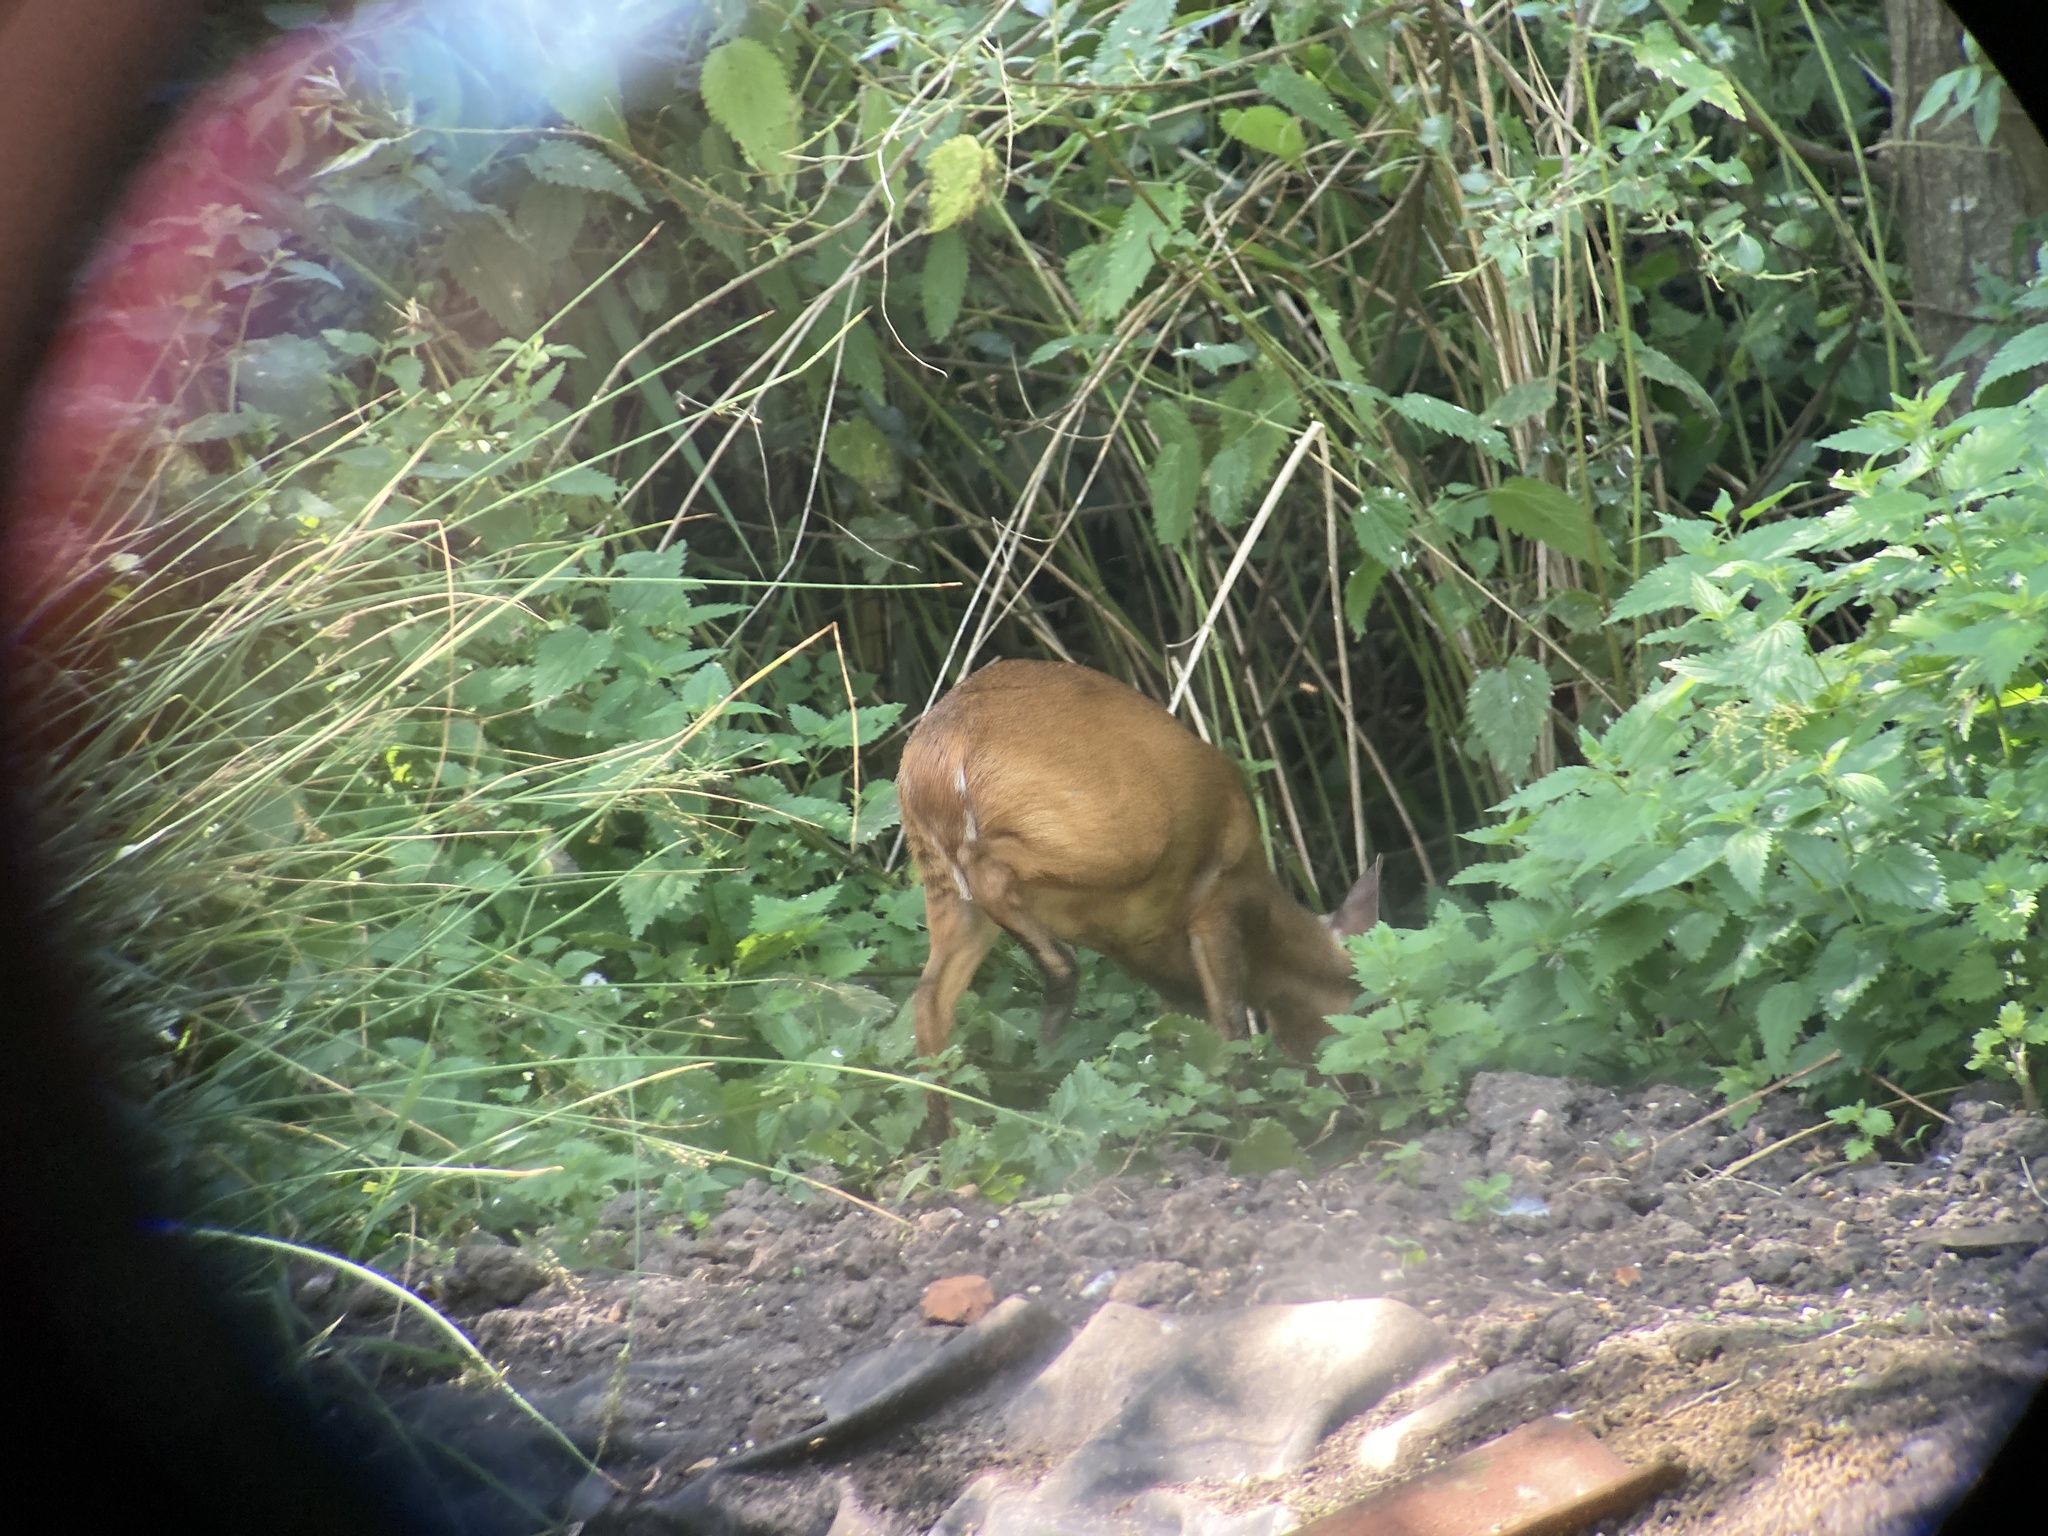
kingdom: Animalia
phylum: Chordata
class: Mammalia
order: Artiodactyla
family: Cervidae
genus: Muntiacus
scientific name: Muntiacus reevesi
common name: Reeves' muntjac
